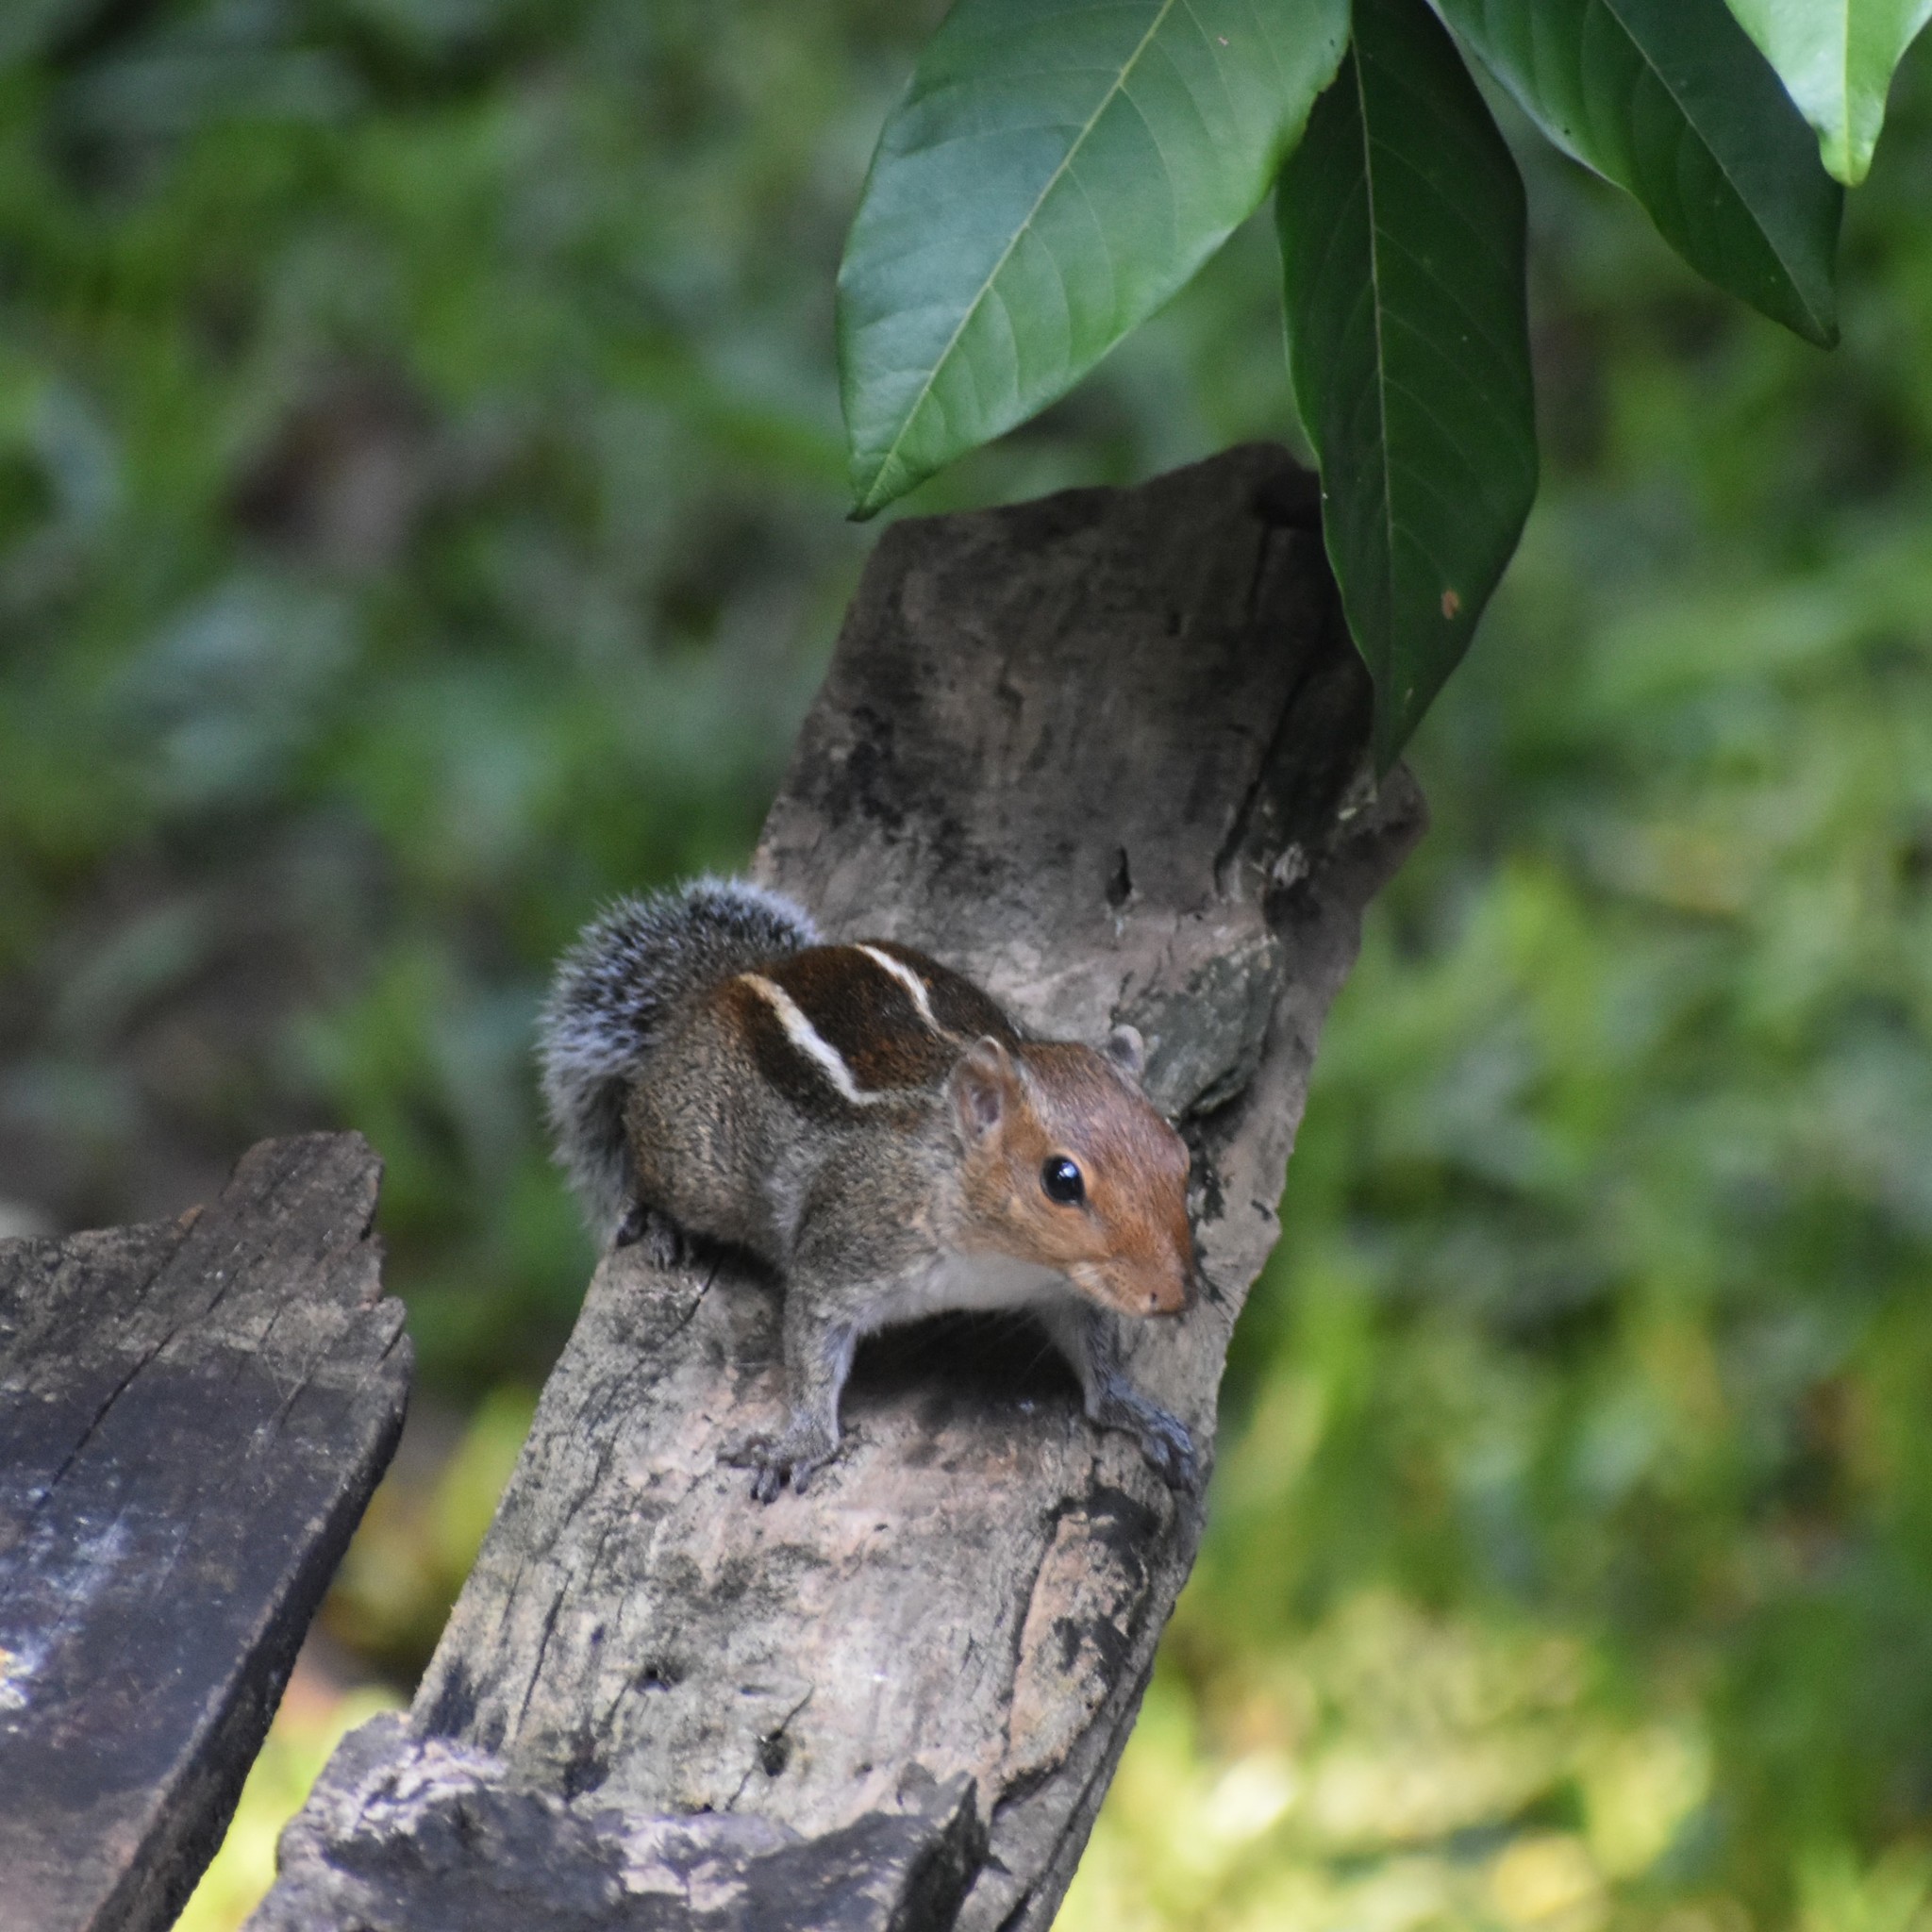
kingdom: Animalia
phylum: Chordata
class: Mammalia
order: Rodentia
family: Sciuridae
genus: Funambulus
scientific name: Funambulus tristriatus
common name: Jungle palm squirrel
